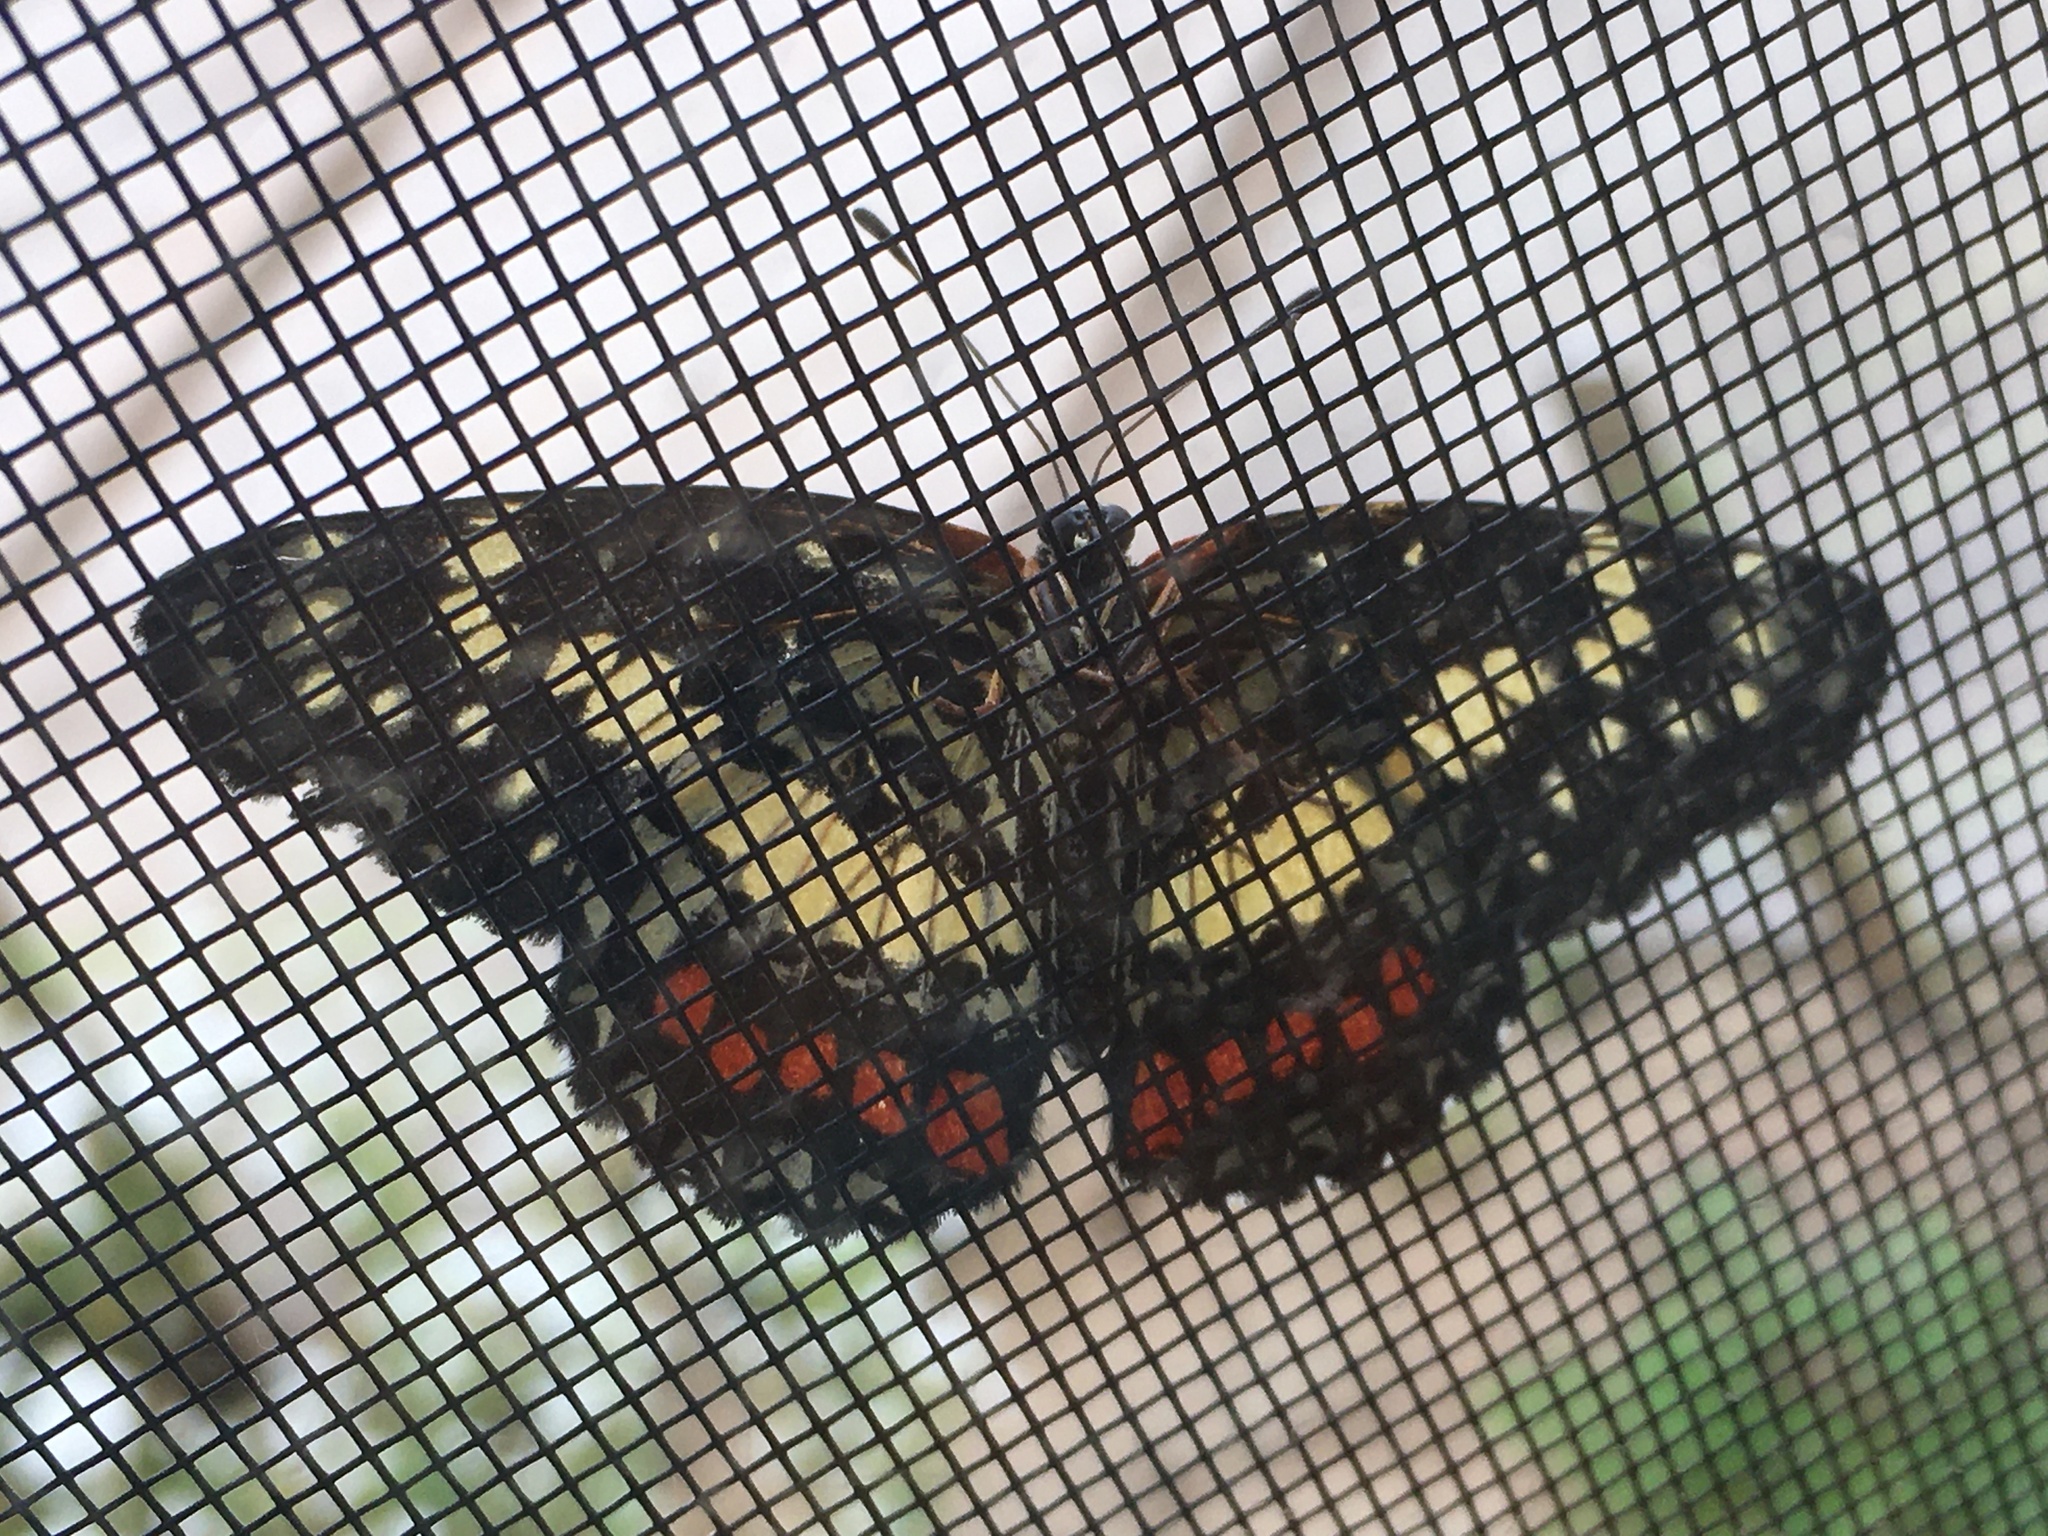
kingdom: Animalia
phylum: Arthropoda
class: Insecta
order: Lepidoptera
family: Nymphalidae
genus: Chlosyne
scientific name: Chlosyne eumeda
